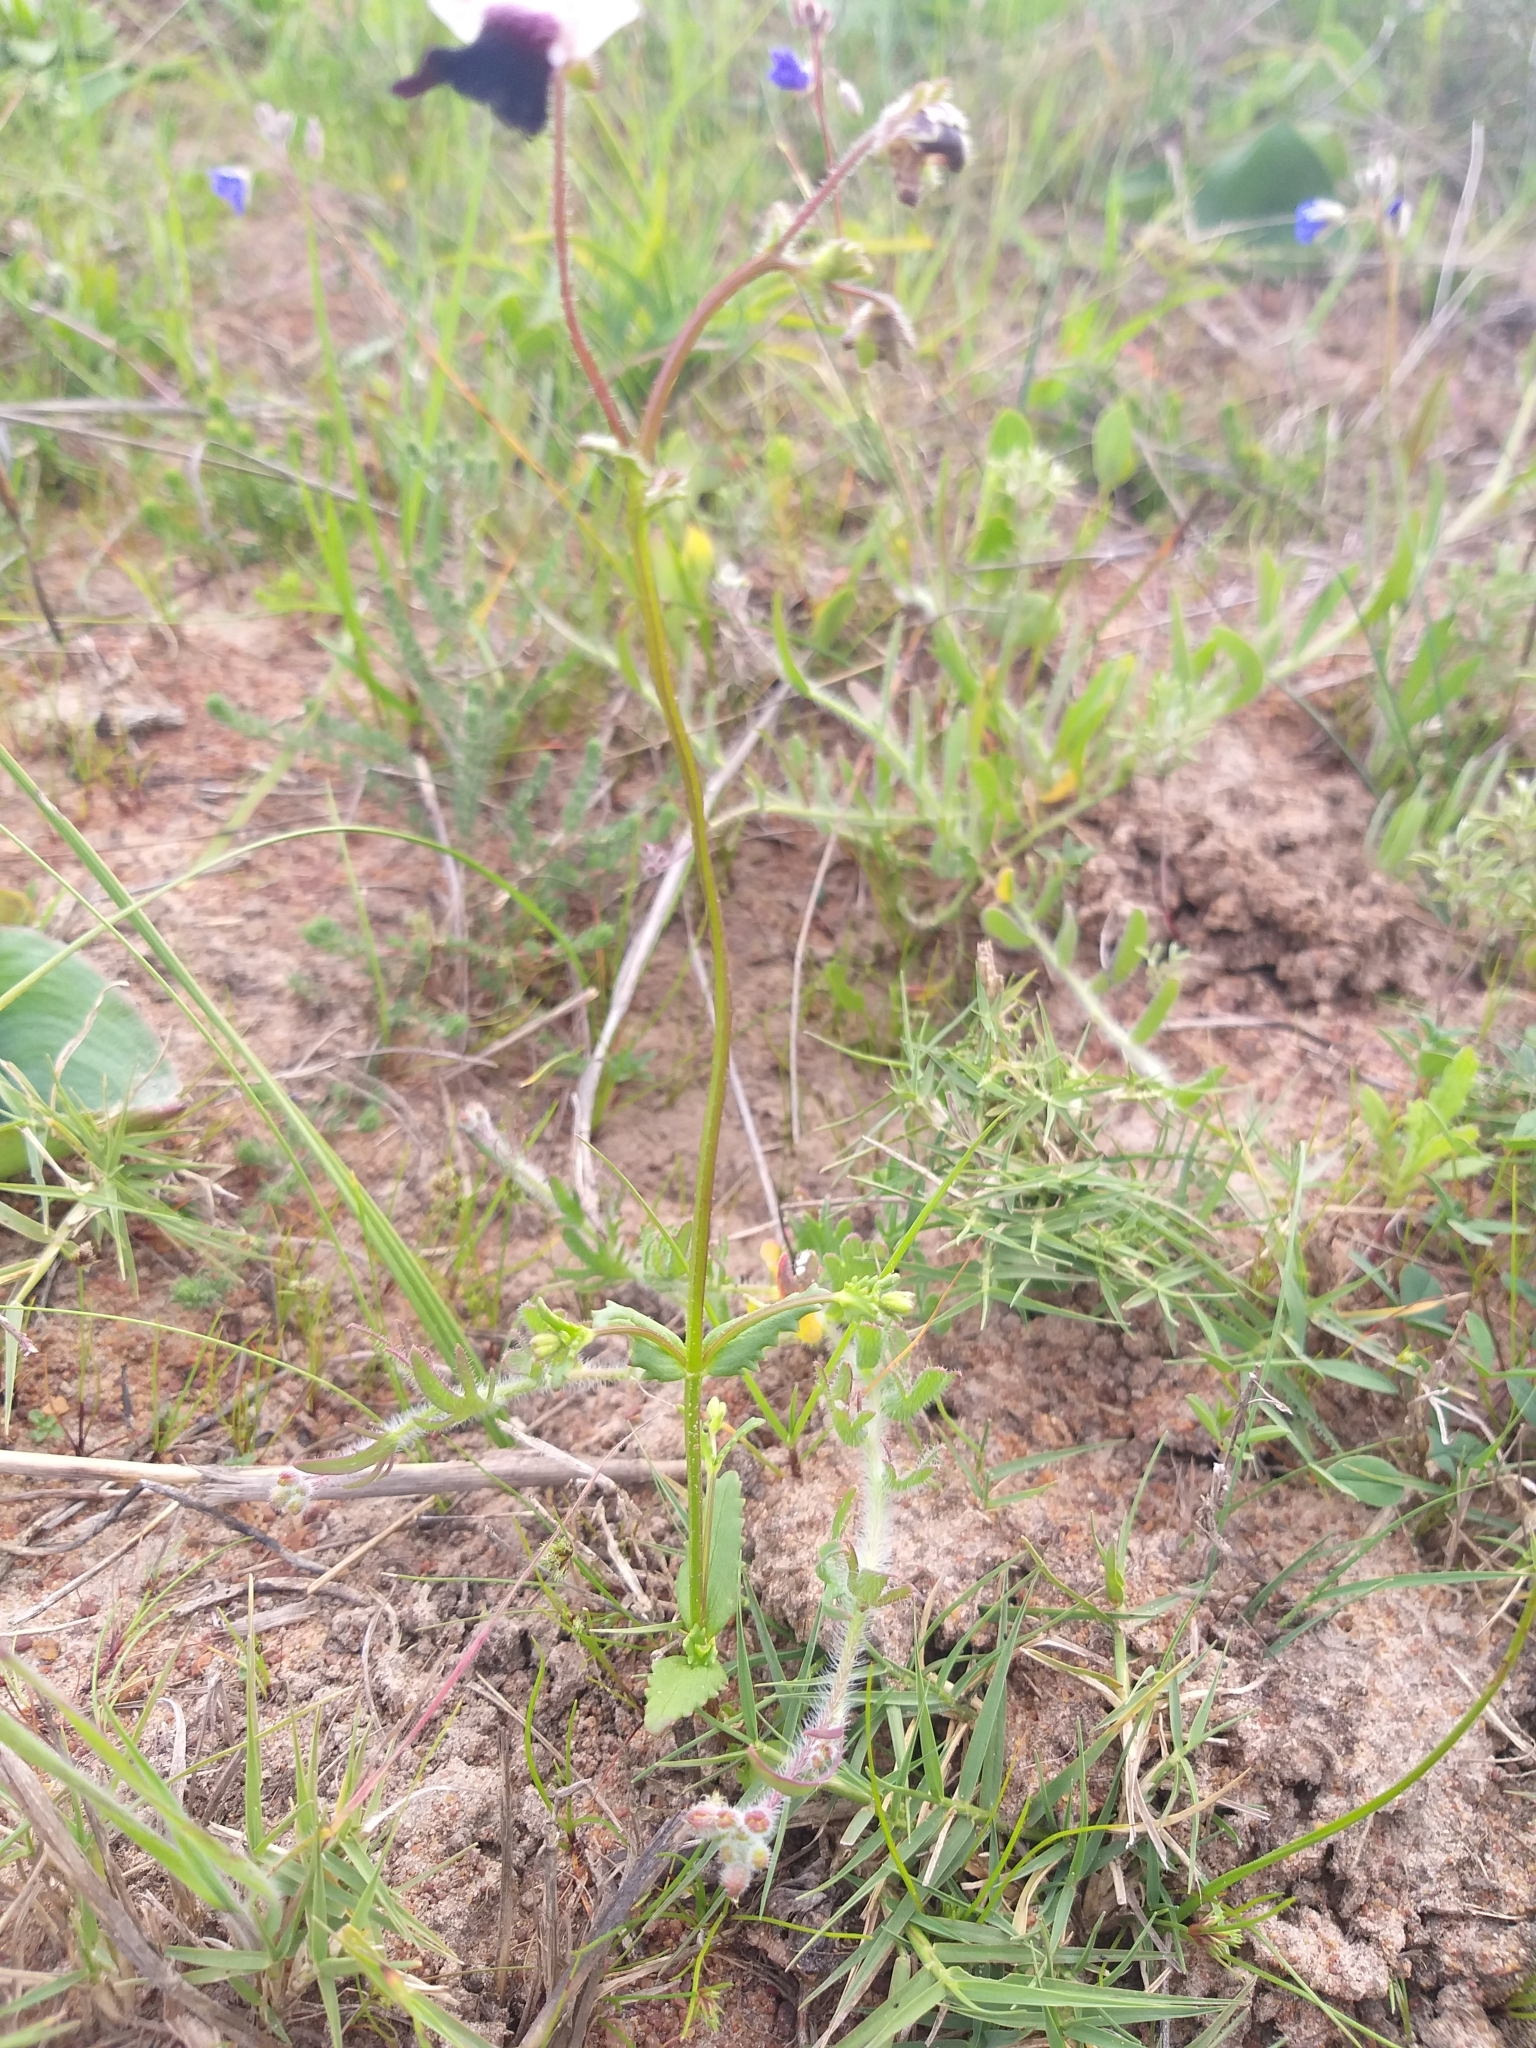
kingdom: Plantae
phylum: Tracheophyta
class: Magnoliopsida
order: Lamiales
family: Scrophulariaceae
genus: Nemesia
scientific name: Nemesia barbata
